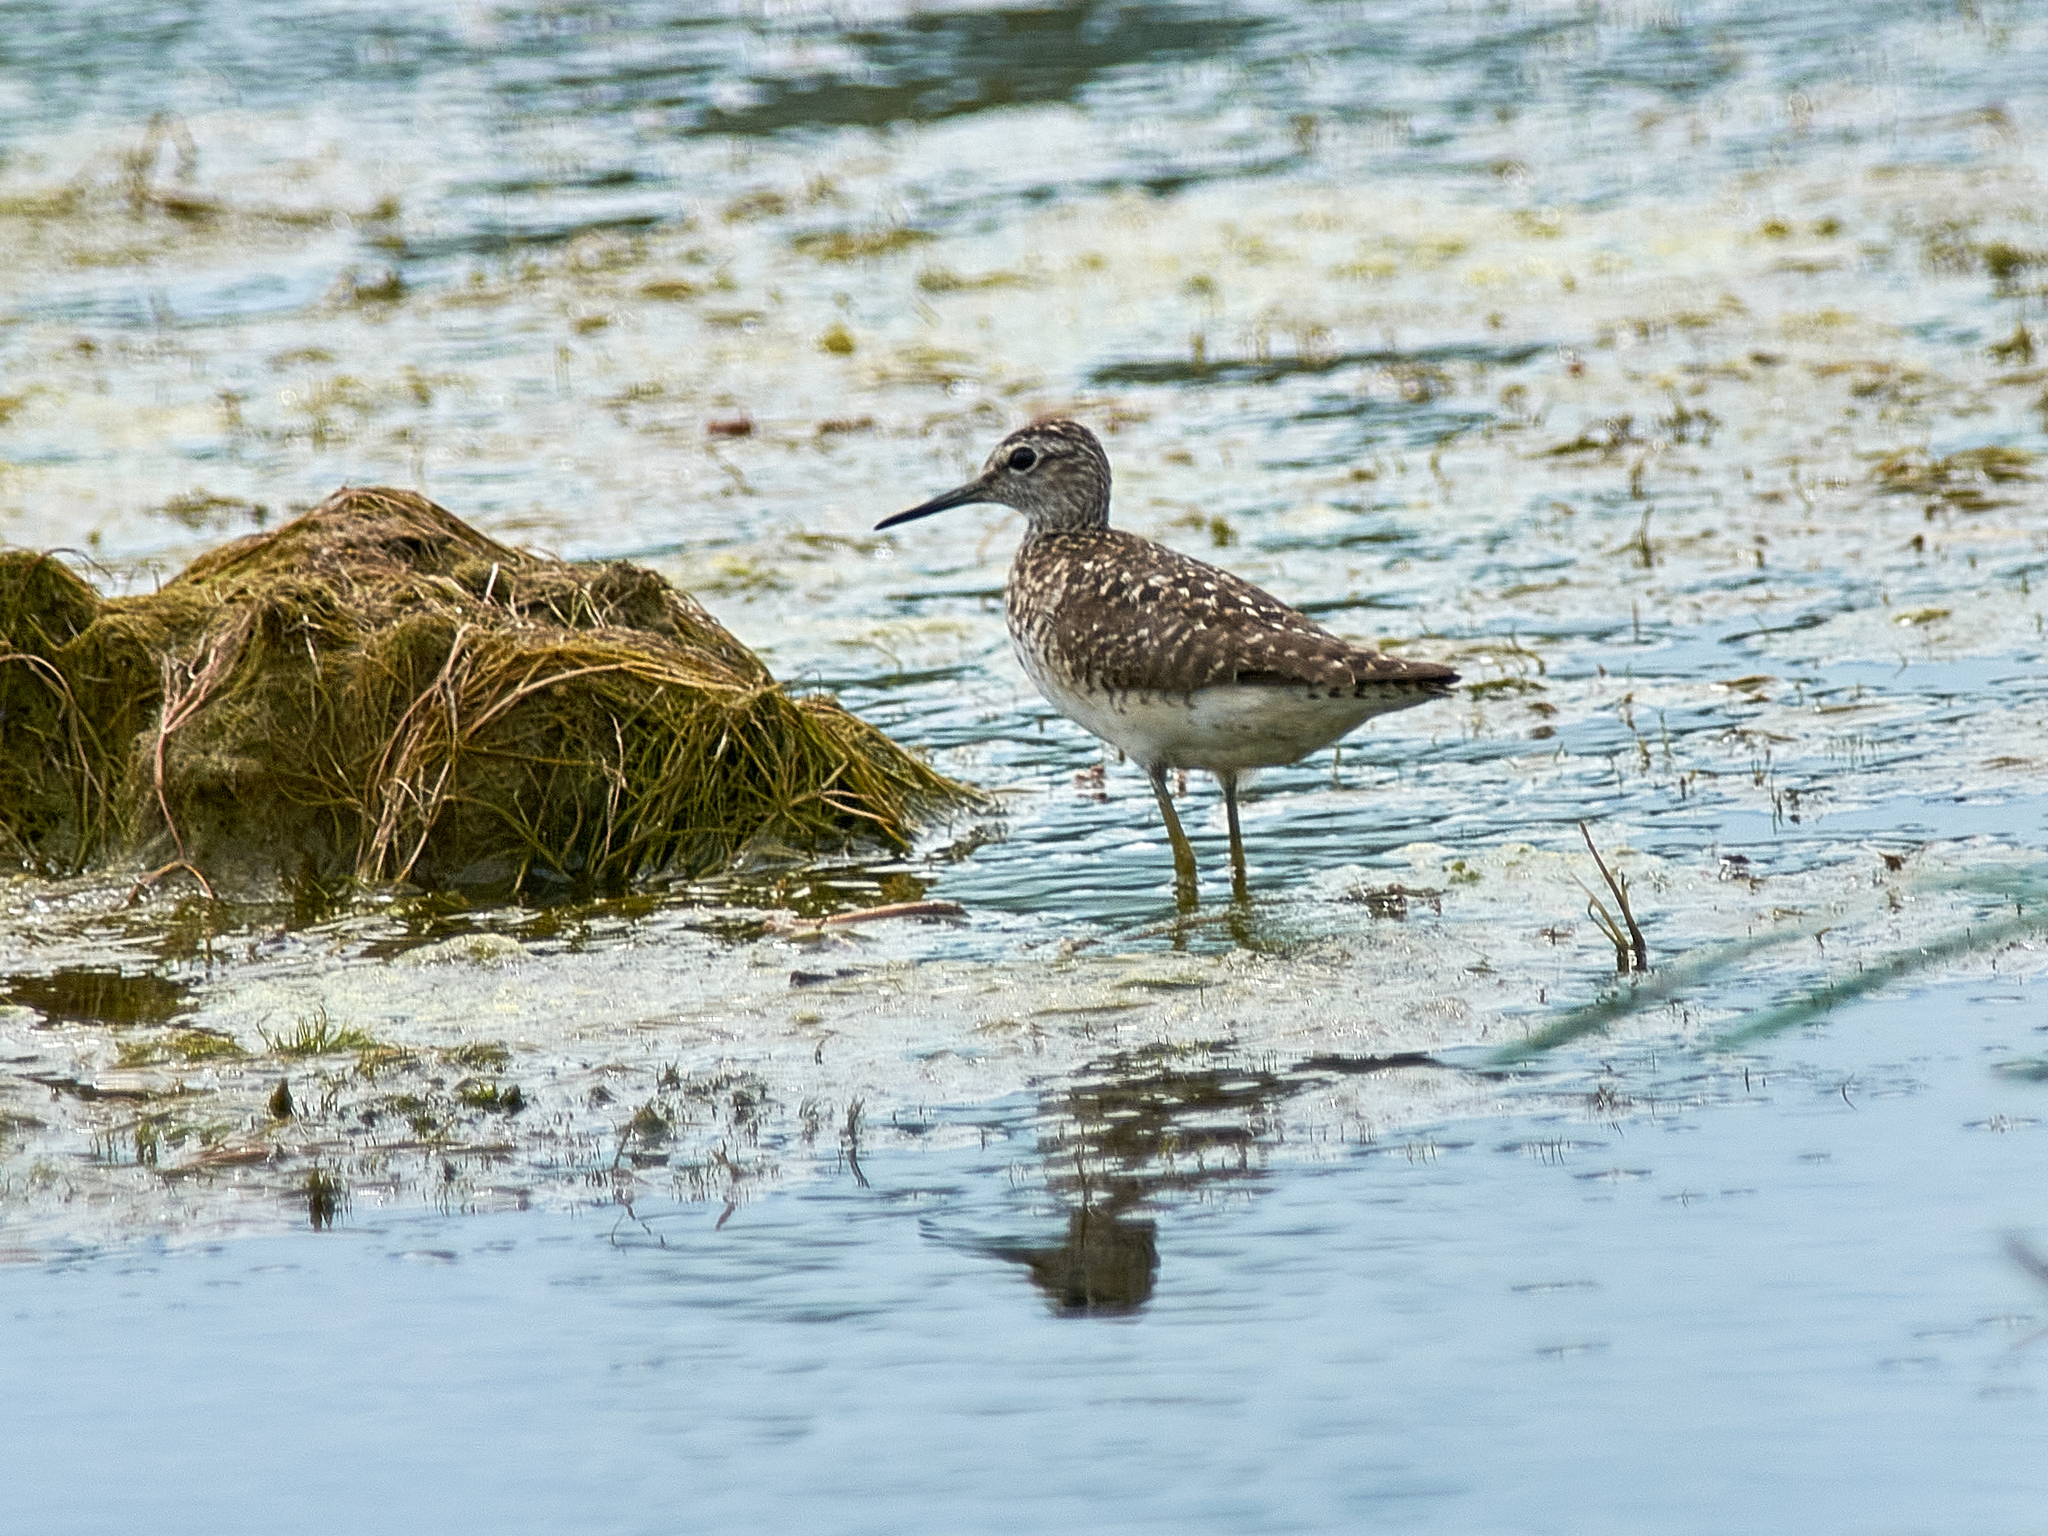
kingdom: Animalia
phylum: Chordata
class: Aves
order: Charadriiformes
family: Scolopacidae
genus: Tringa
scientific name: Tringa glareola
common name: Wood sandpiper
